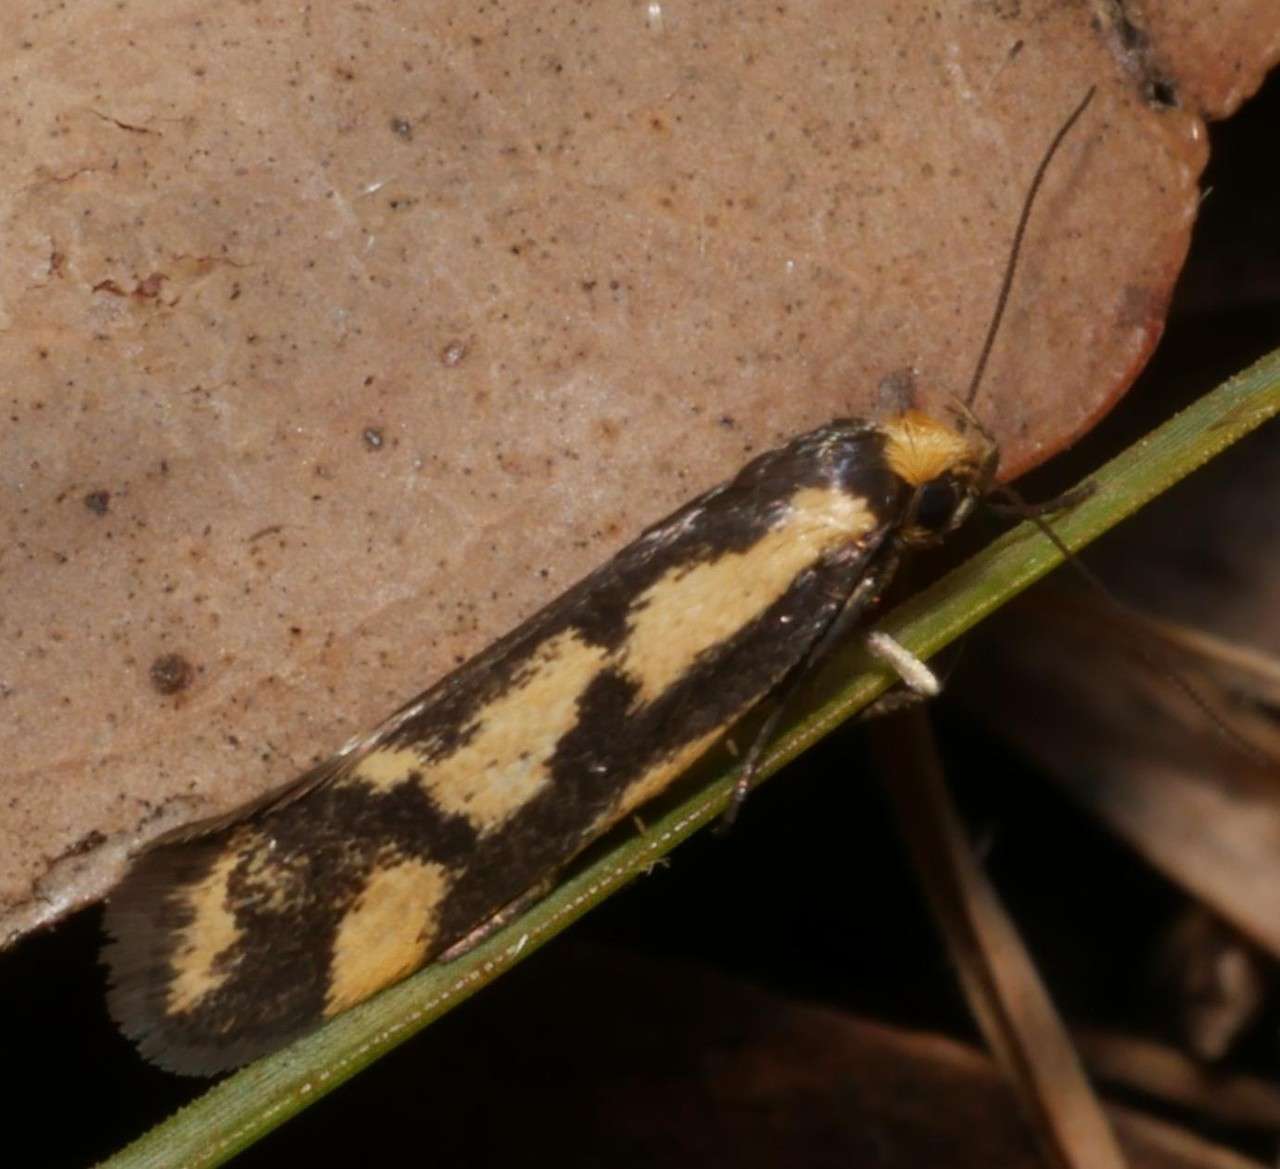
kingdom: Animalia
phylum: Arthropoda
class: Insecta
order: Lepidoptera
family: Oecophoridae
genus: Palimmeces
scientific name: Palimmeces poecilella
